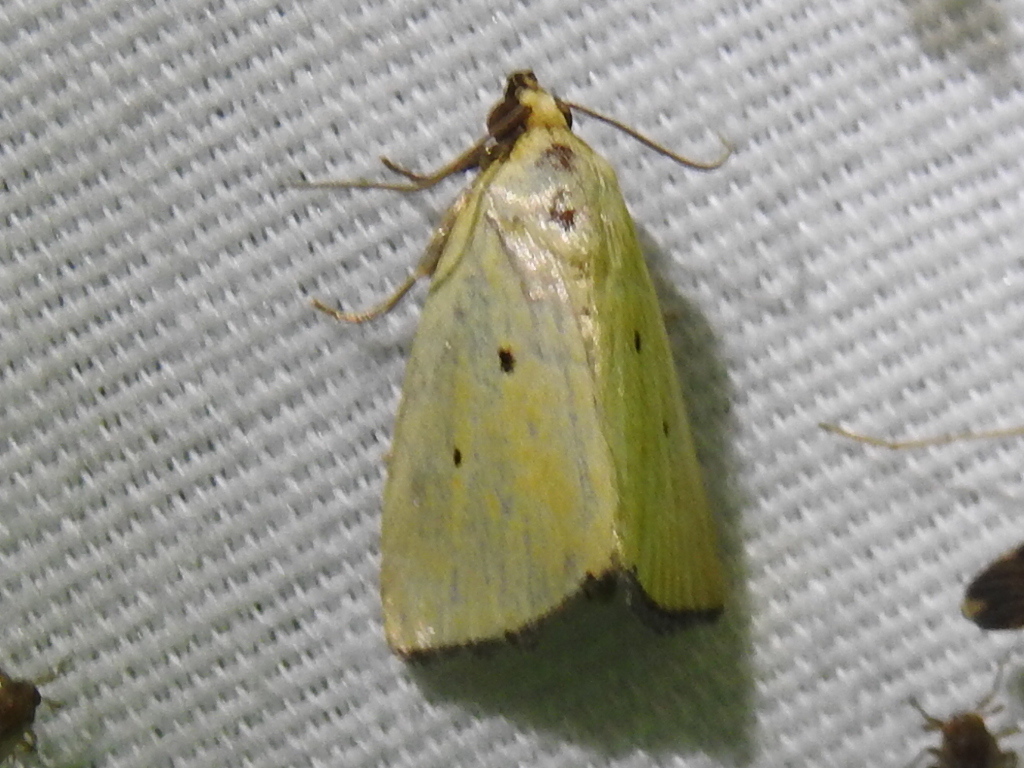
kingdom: Animalia
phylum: Arthropoda
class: Insecta
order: Lepidoptera
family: Noctuidae
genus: Marimatha
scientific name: Marimatha nigrofimbria
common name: Black-bordered lemon moth
